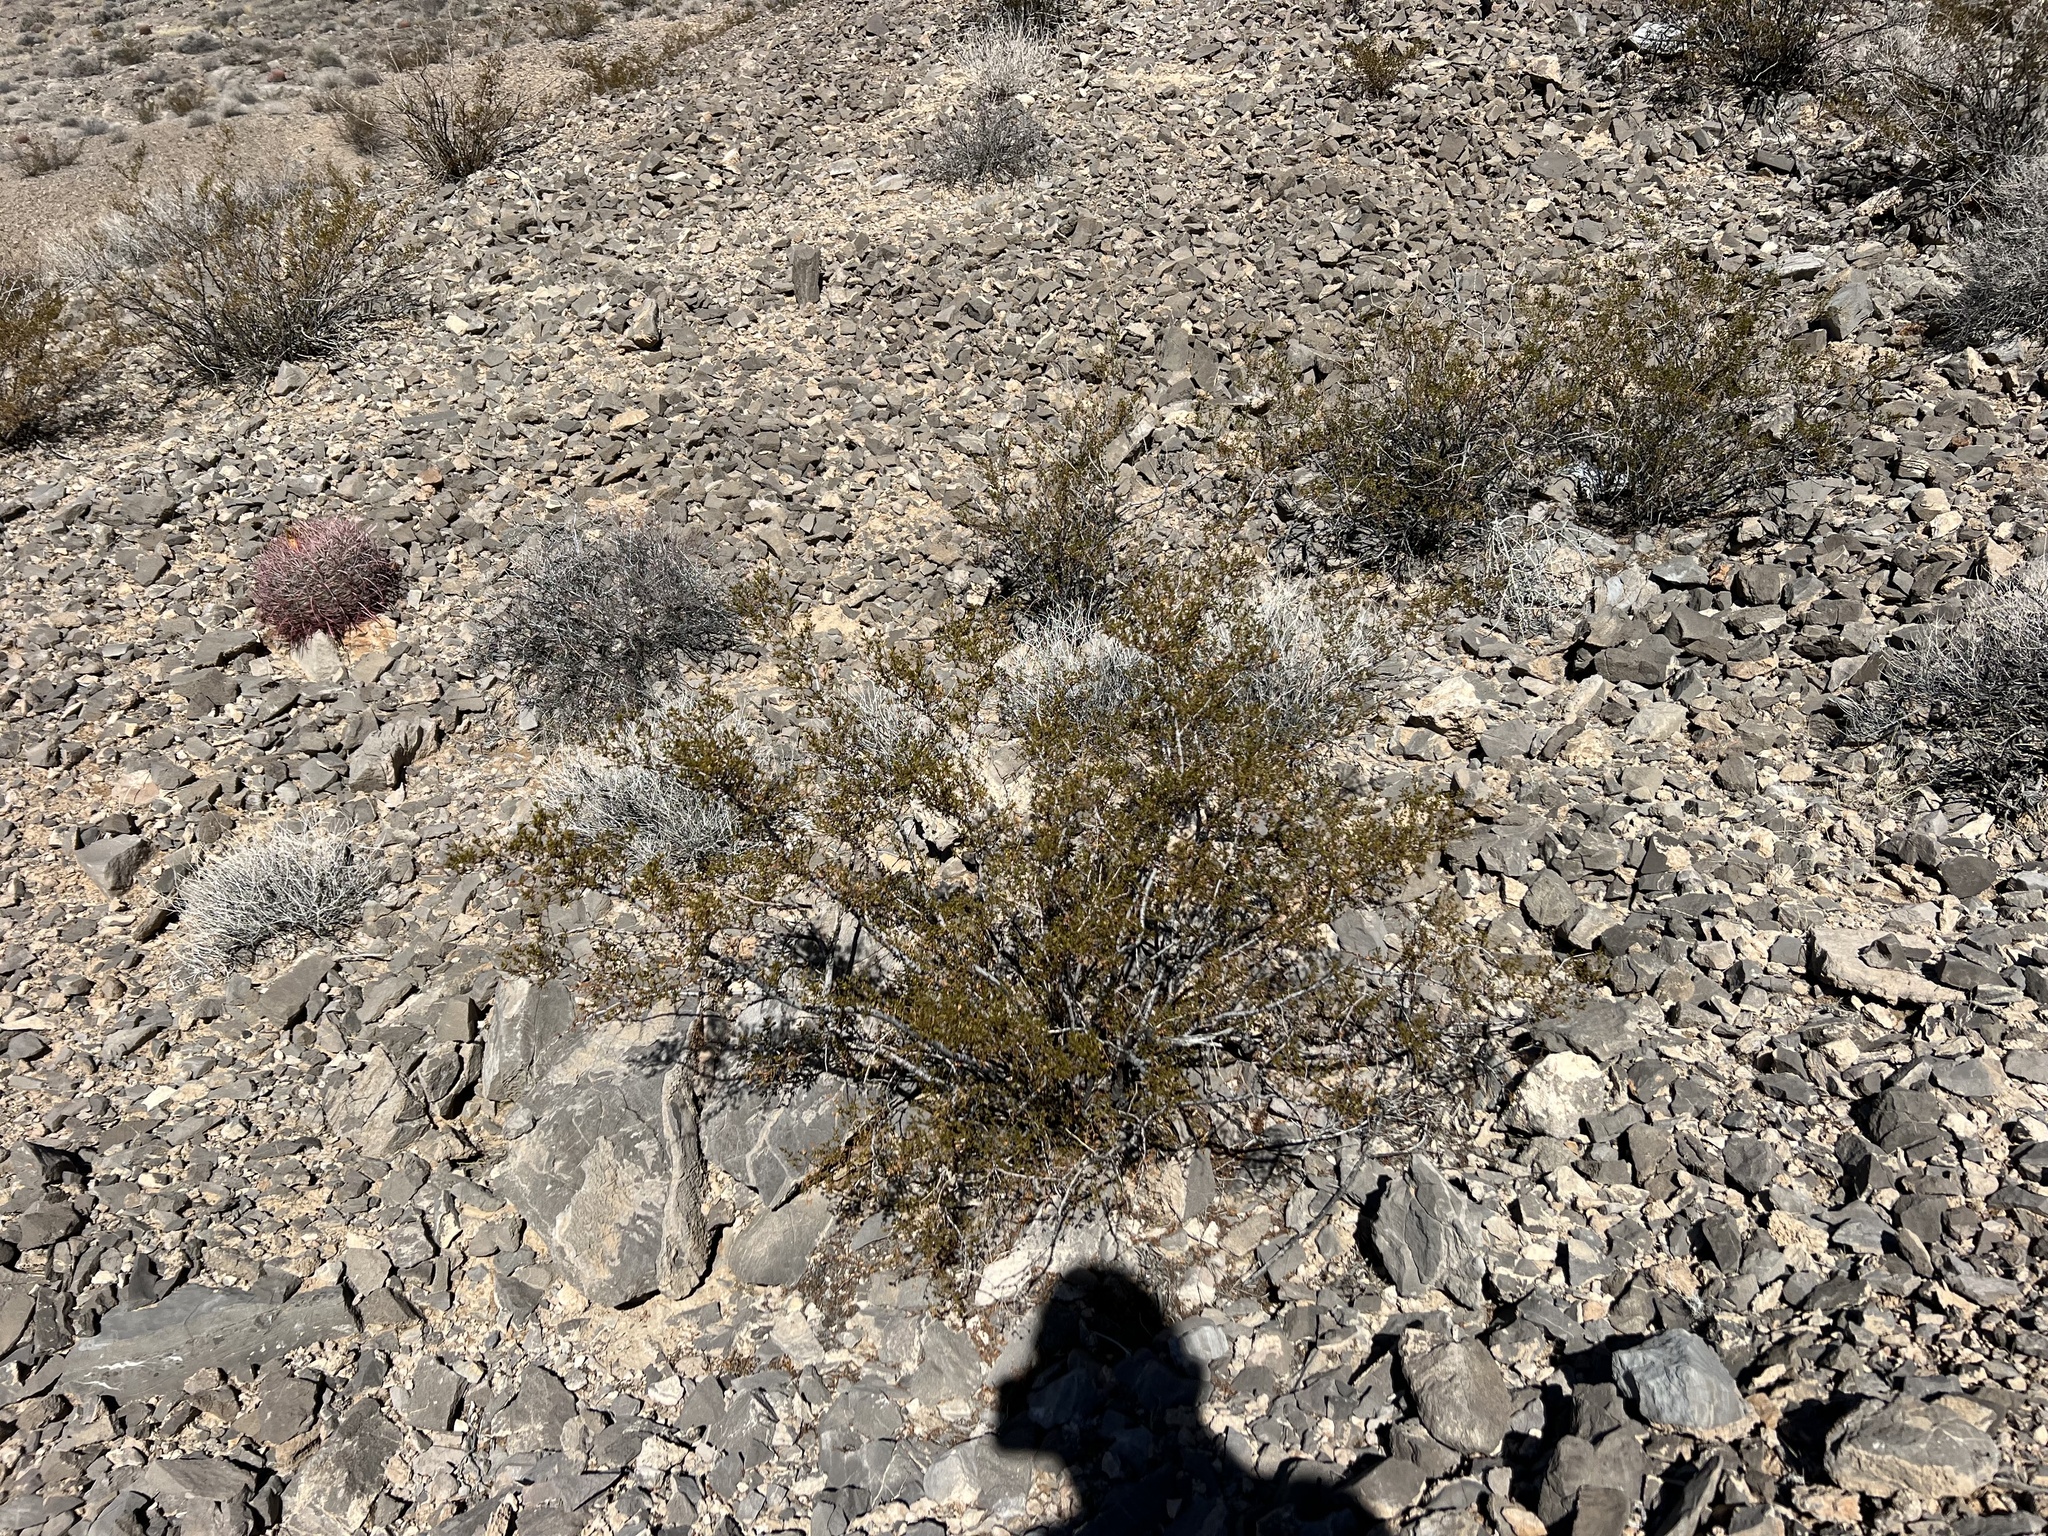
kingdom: Plantae
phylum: Tracheophyta
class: Magnoliopsida
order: Zygophyllales
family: Zygophyllaceae
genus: Larrea
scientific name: Larrea tridentata
